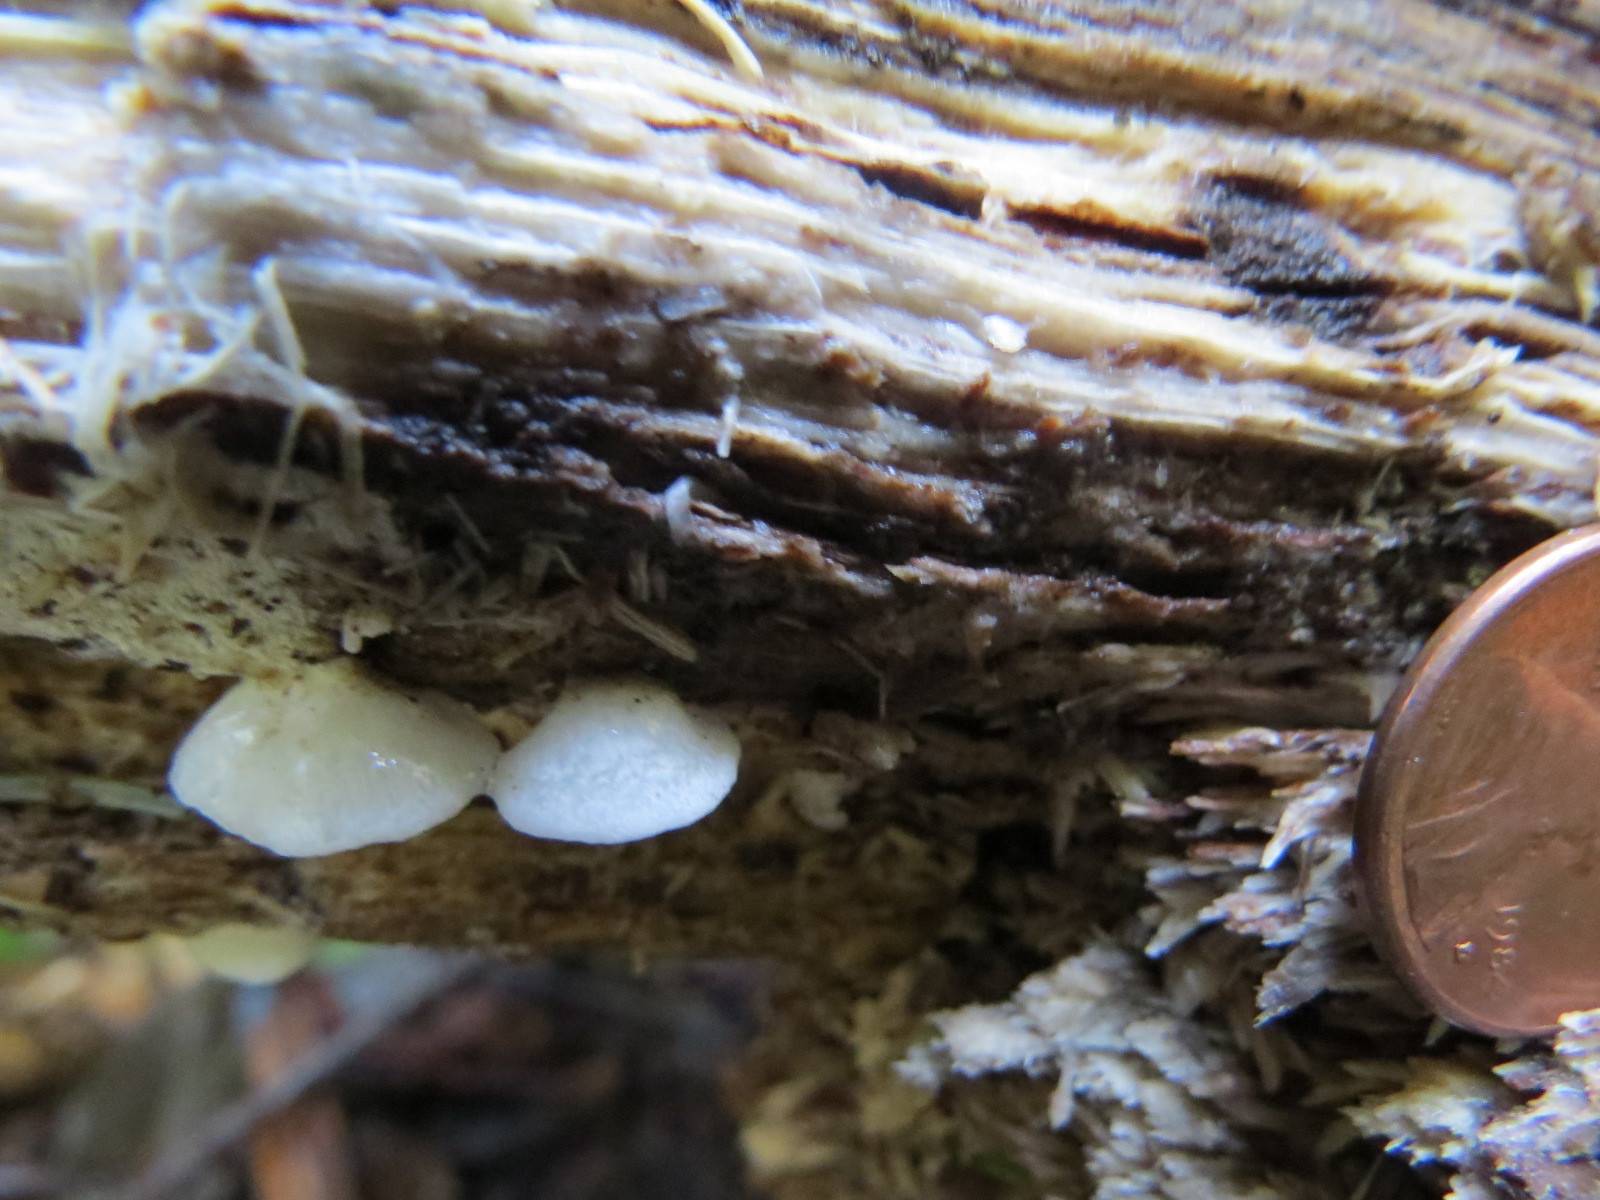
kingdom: Fungi
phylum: Basidiomycota
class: Agaricomycetes
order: Agaricales
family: Entolomataceae
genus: Clitopilus
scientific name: Clitopilus hobsonii
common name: Miller's oysterling
